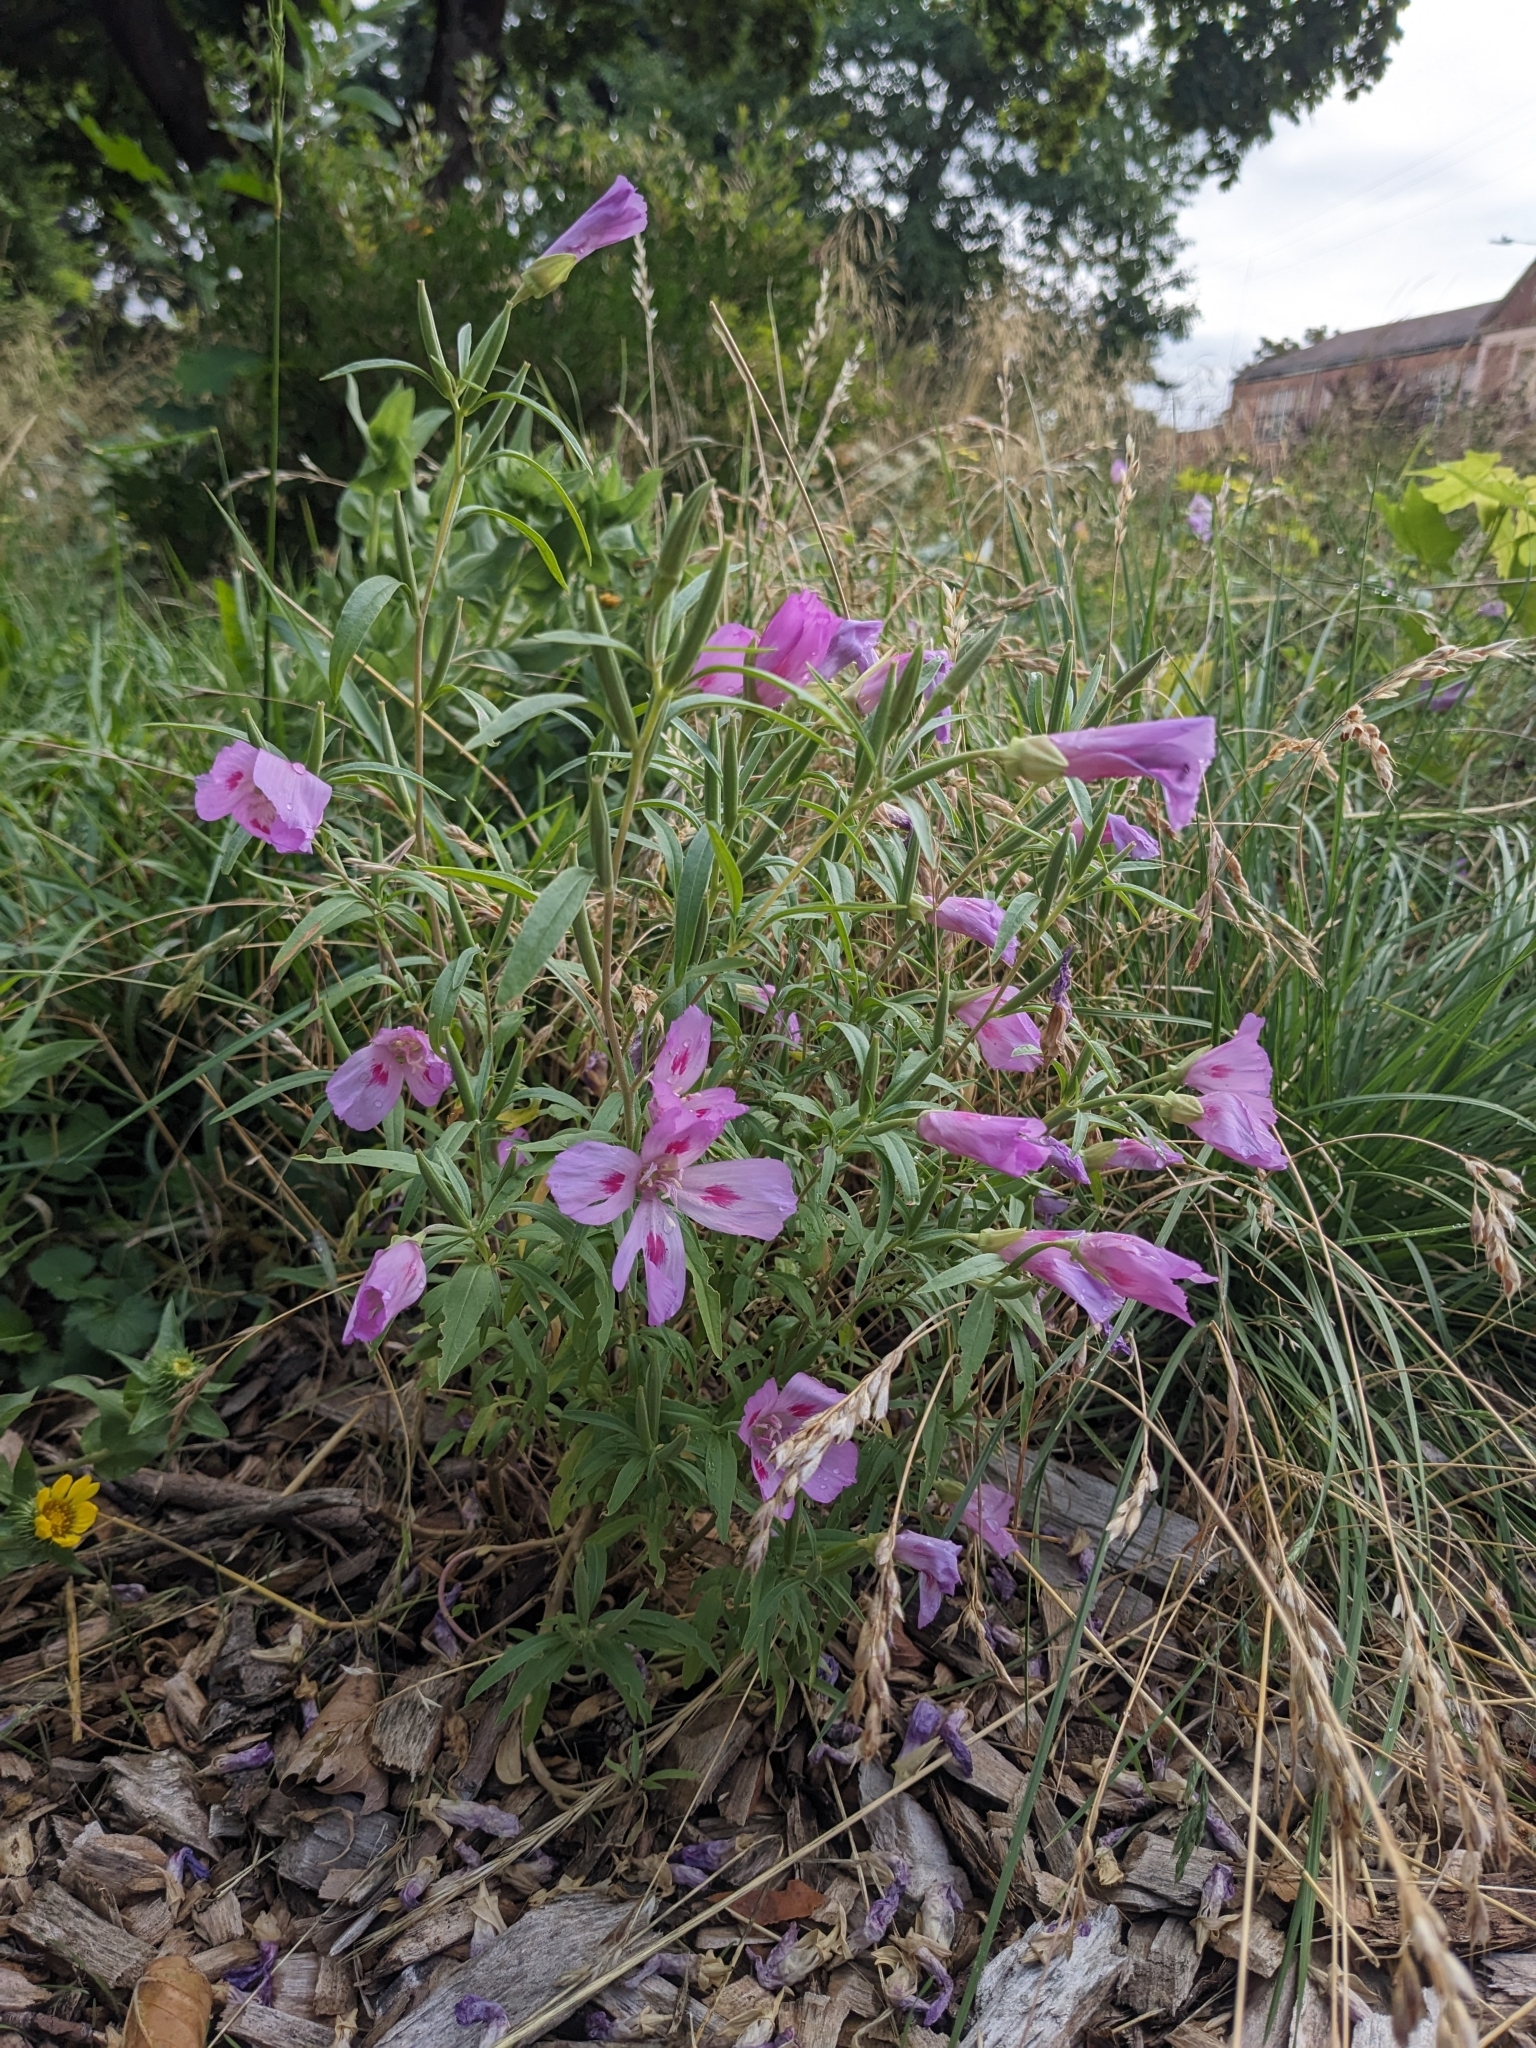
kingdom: Plantae
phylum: Tracheophyta
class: Magnoliopsida
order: Myrtales
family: Onagraceae
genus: Clarkia
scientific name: Clarkia amoena
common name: Godetia
